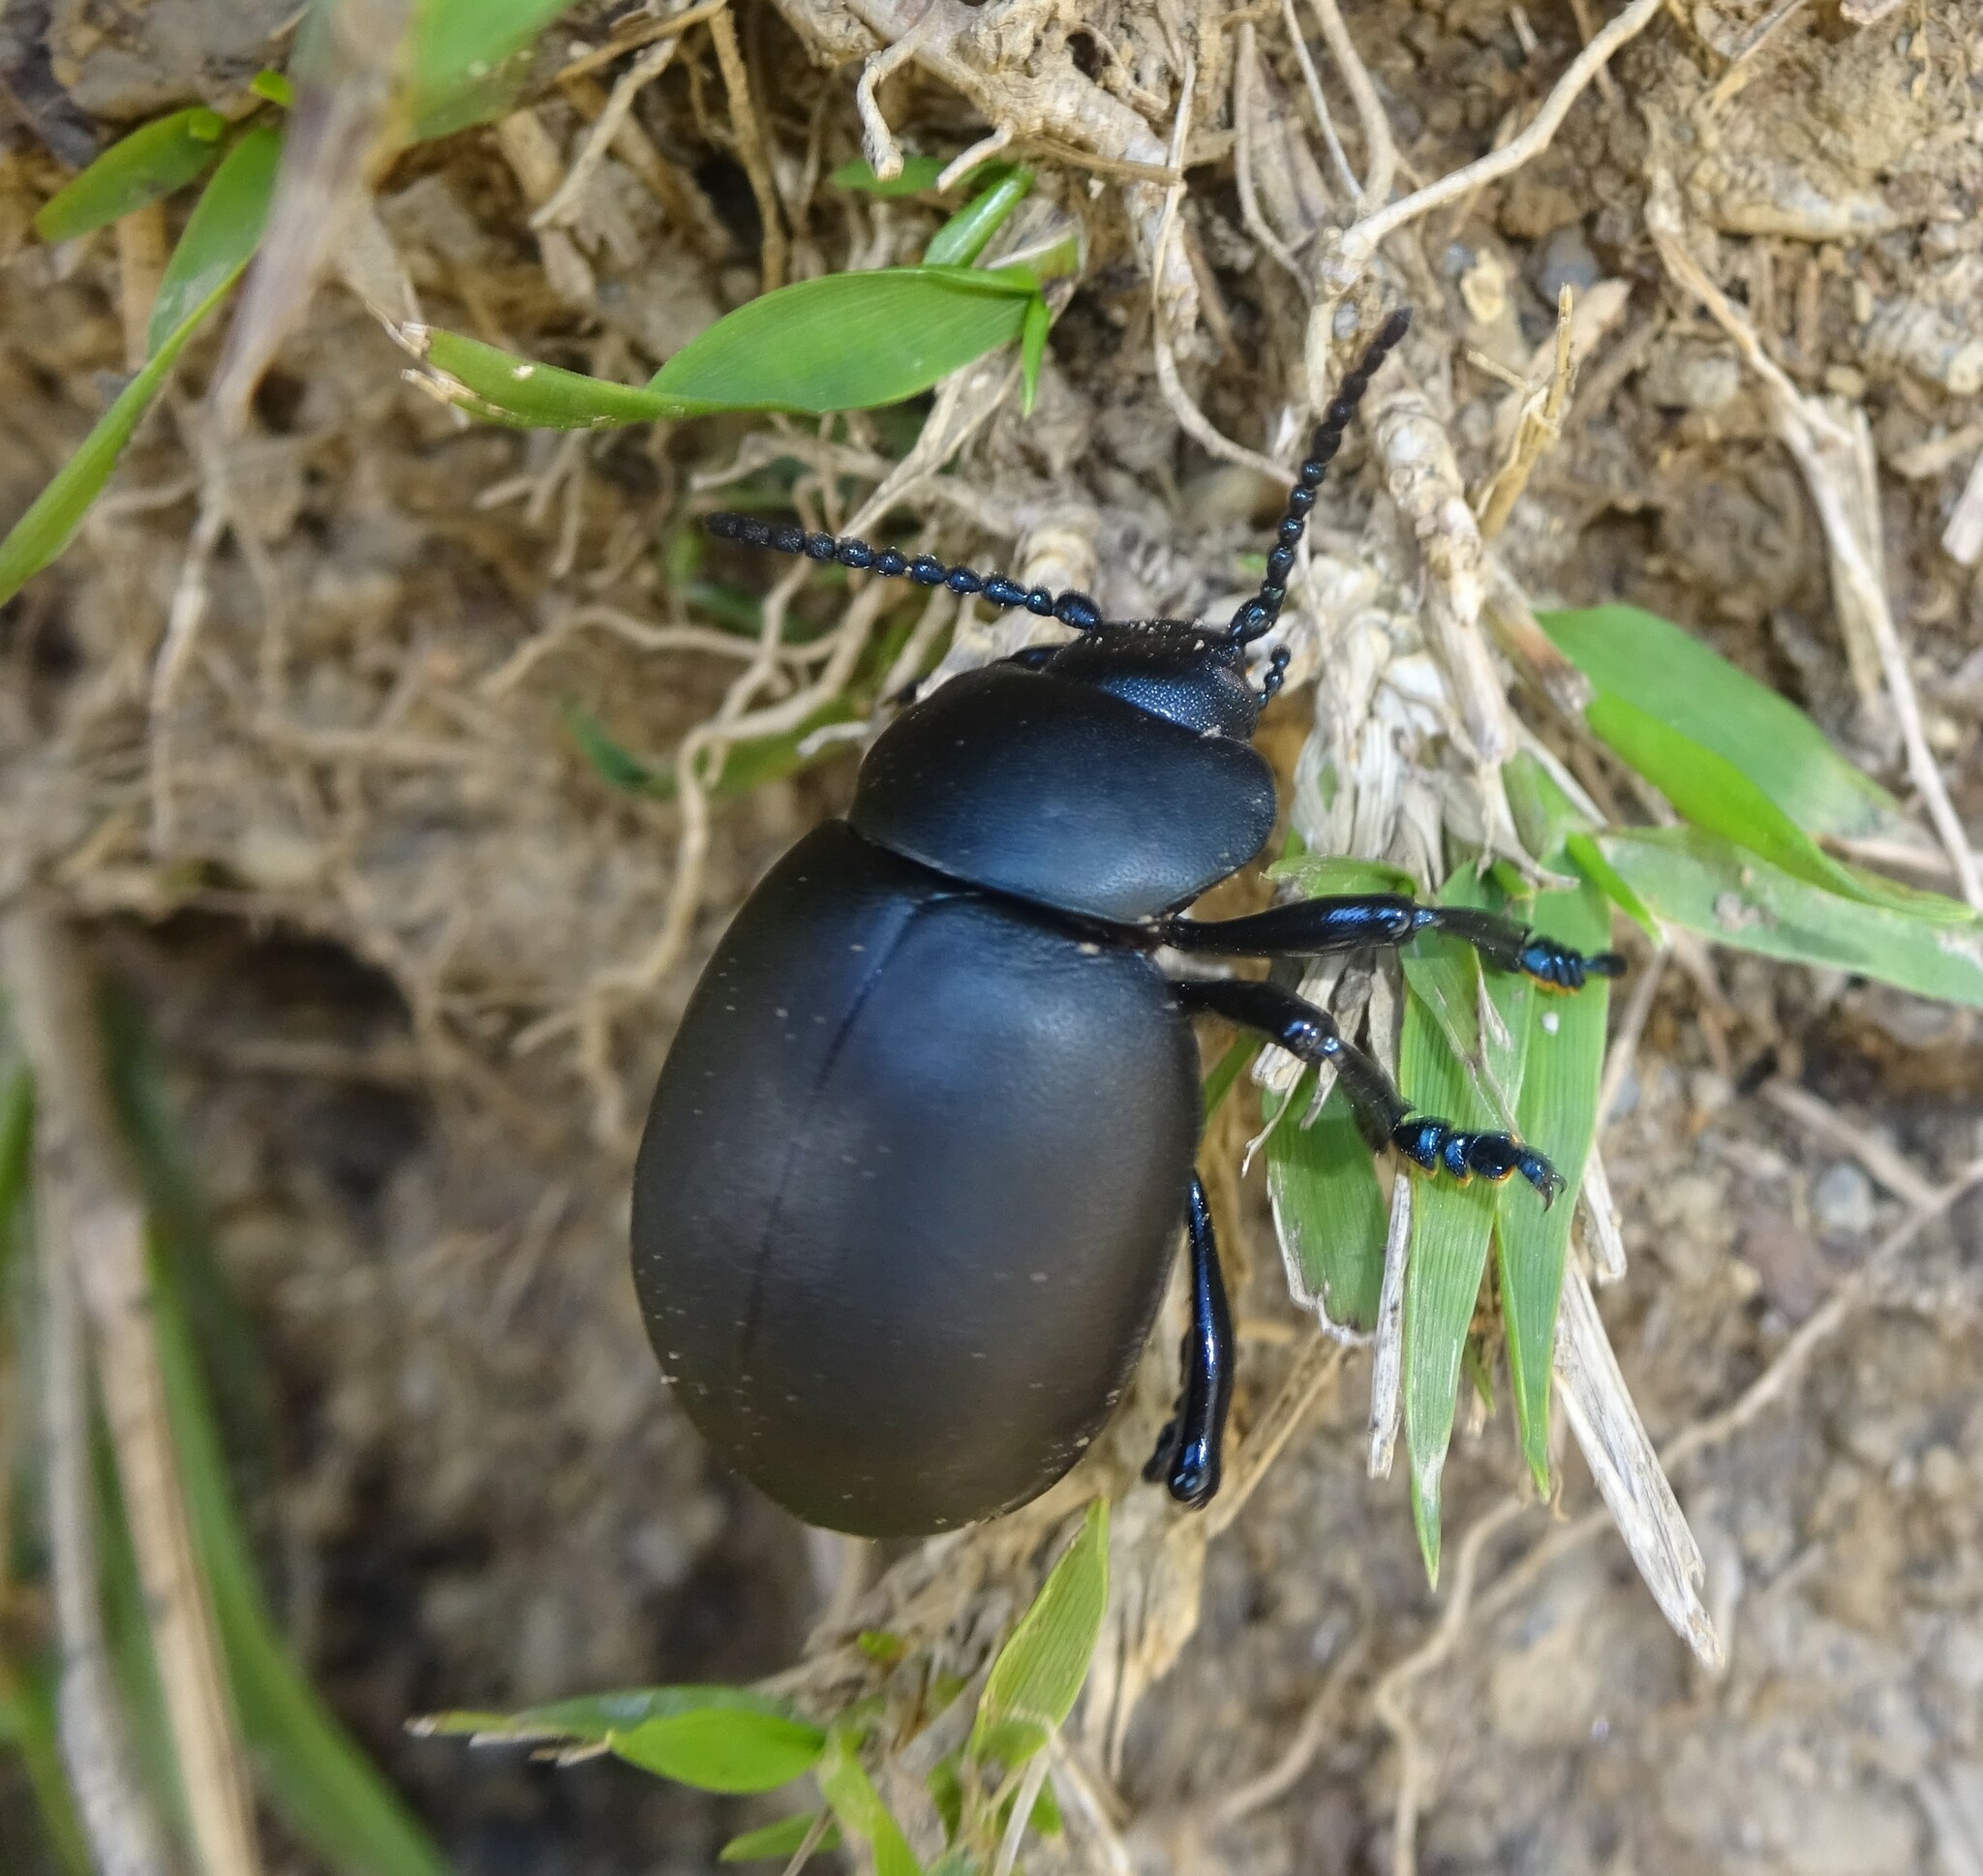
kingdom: Animalia
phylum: Arthropoda
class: Insecta
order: Coleoptera
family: Chrysomelidae
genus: Timarcha
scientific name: Timarcha tenebricosa
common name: Bloody-nosed beetle
